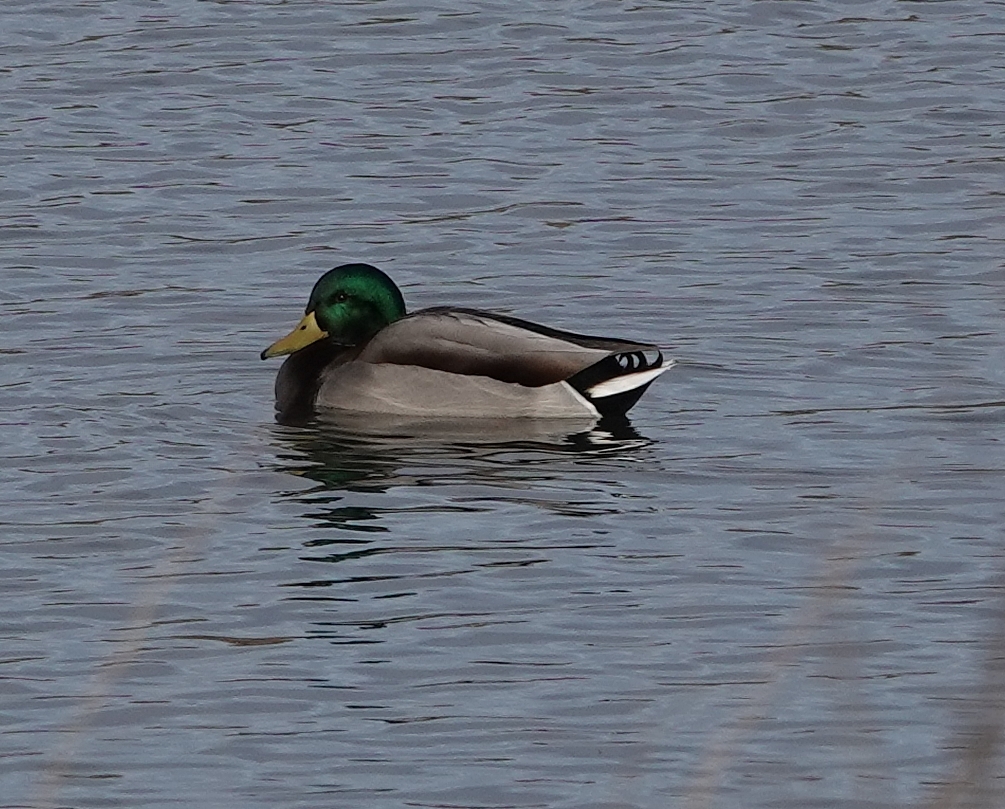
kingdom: Animalia
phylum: Chordata
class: Aves
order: Anseriformes
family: Anatidae
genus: Anas
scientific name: Anas platyrhynchos
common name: Mallard
